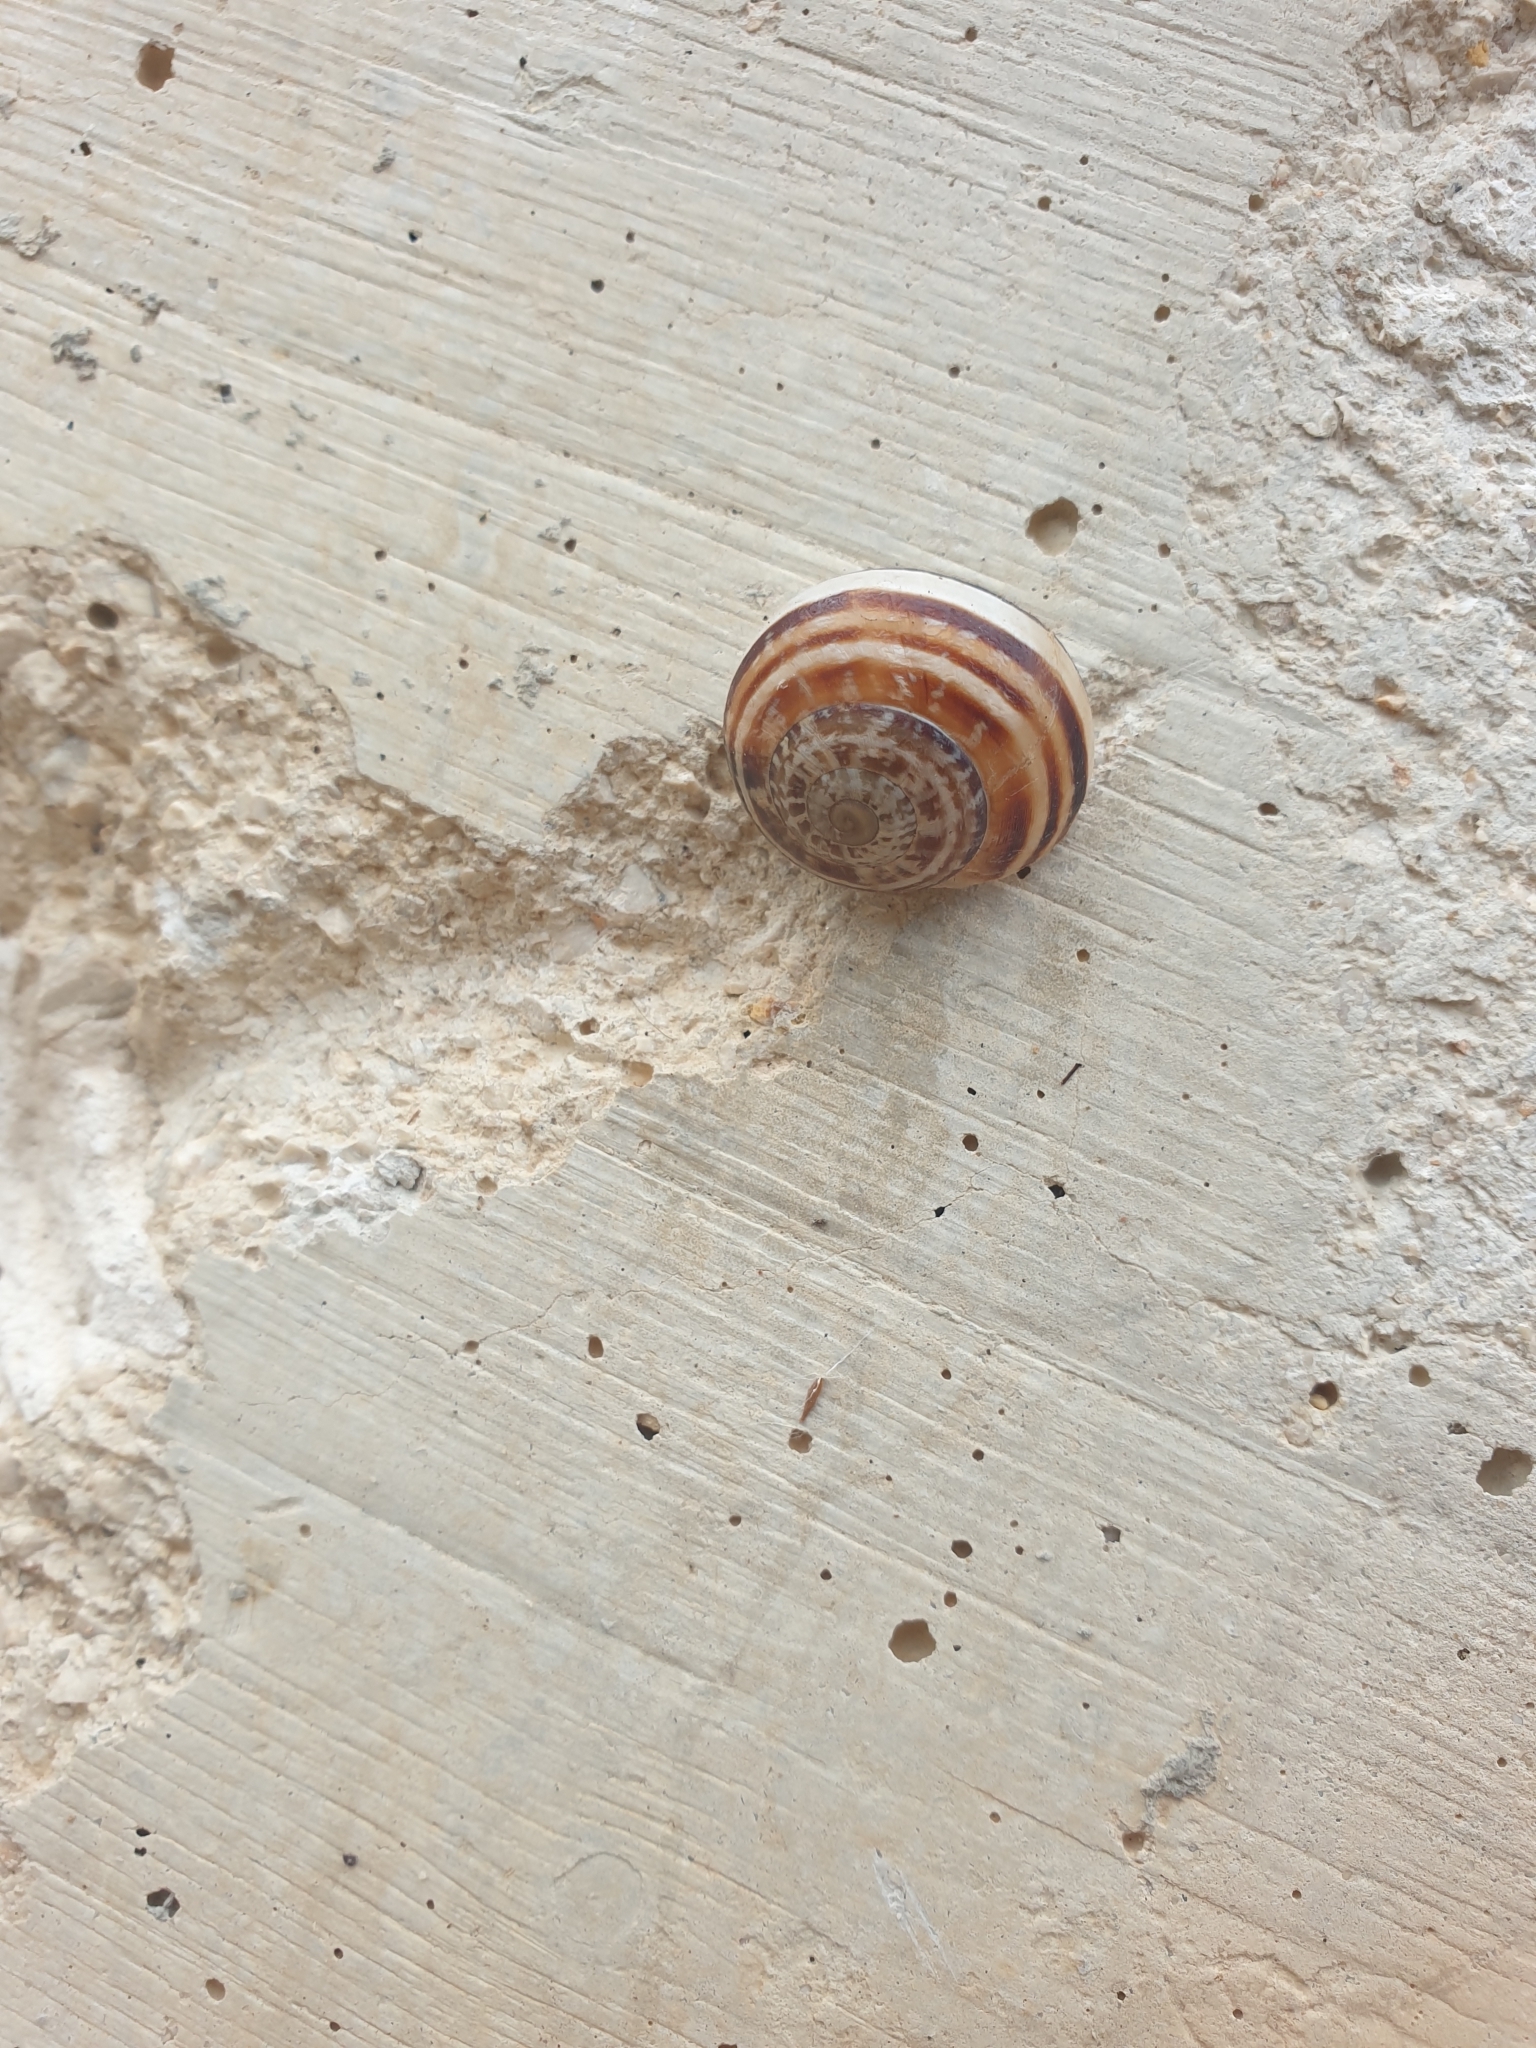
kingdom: Animalia
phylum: Mollusca
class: Gastropoda
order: Stylommatophora
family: Helicidae
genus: Eobania
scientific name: Eobania vermiculata
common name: Chocolateband snail
